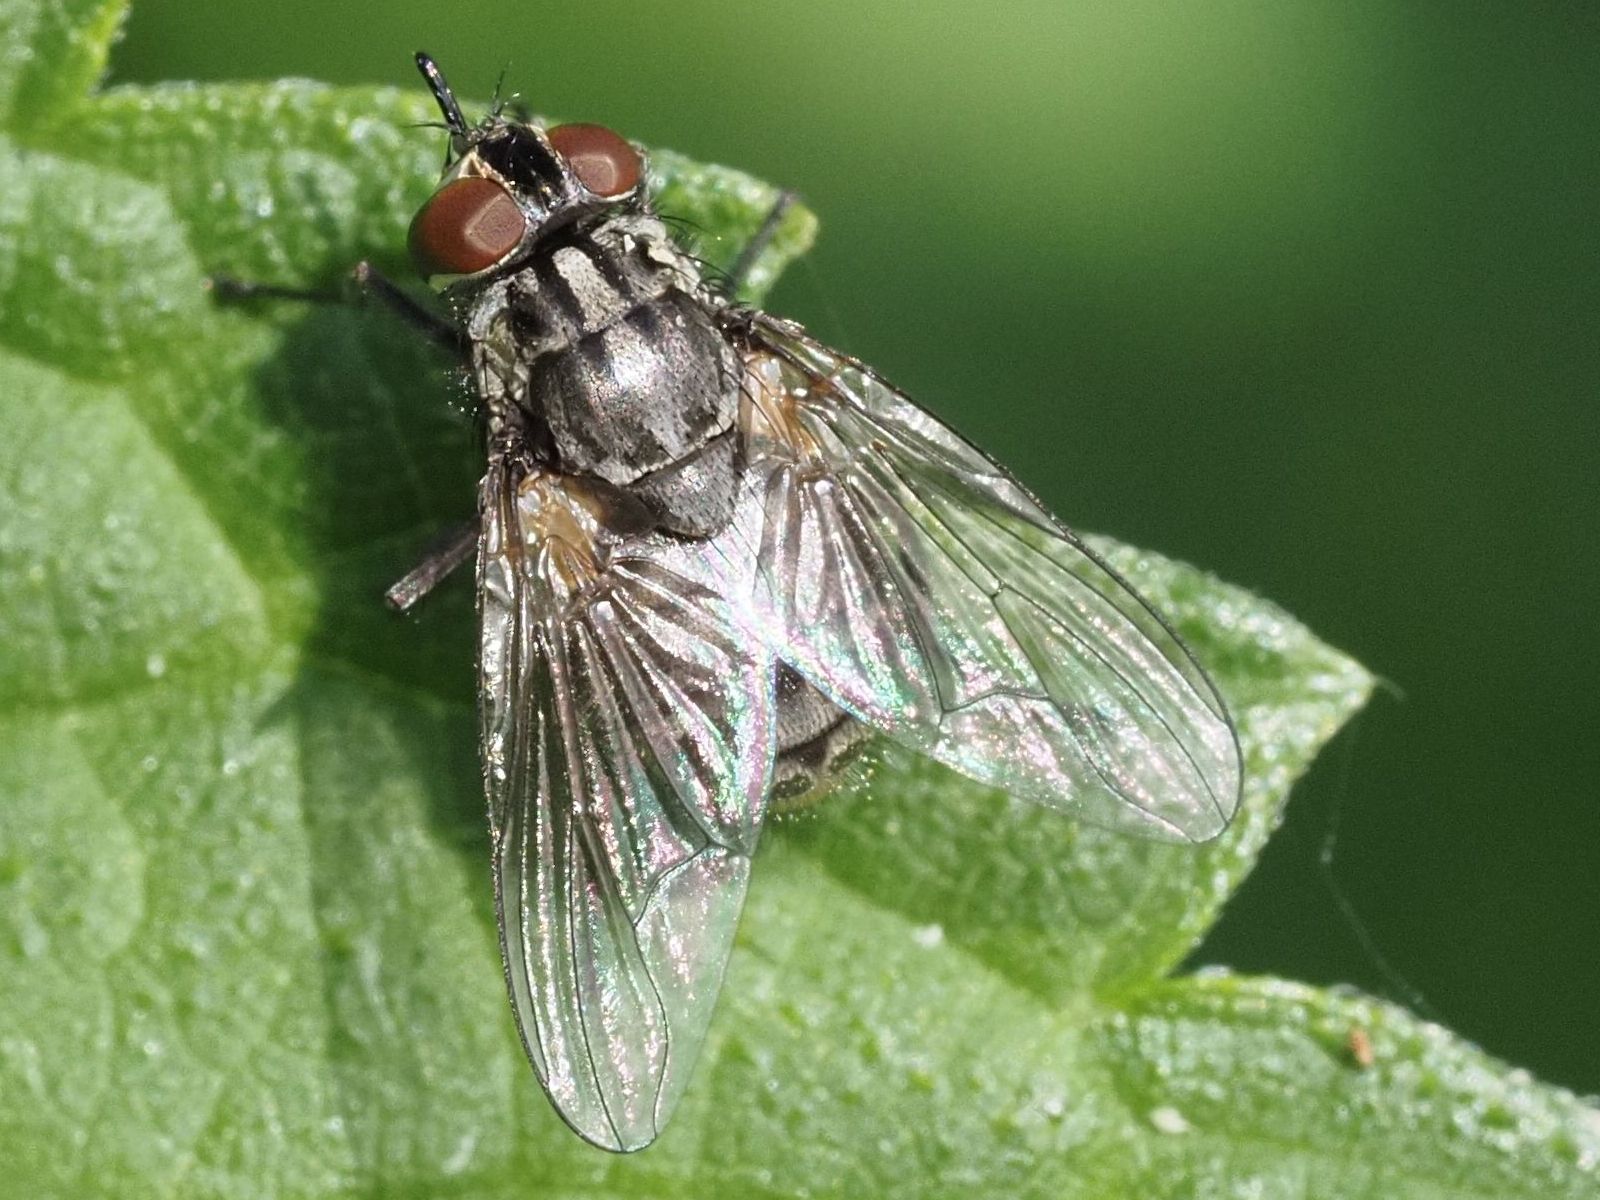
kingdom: Animalia
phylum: Arthropoda
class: Insecta
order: Diptera
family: Muscidae
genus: Stomoxys
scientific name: Stomoxys calcitrans
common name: Stable fly
